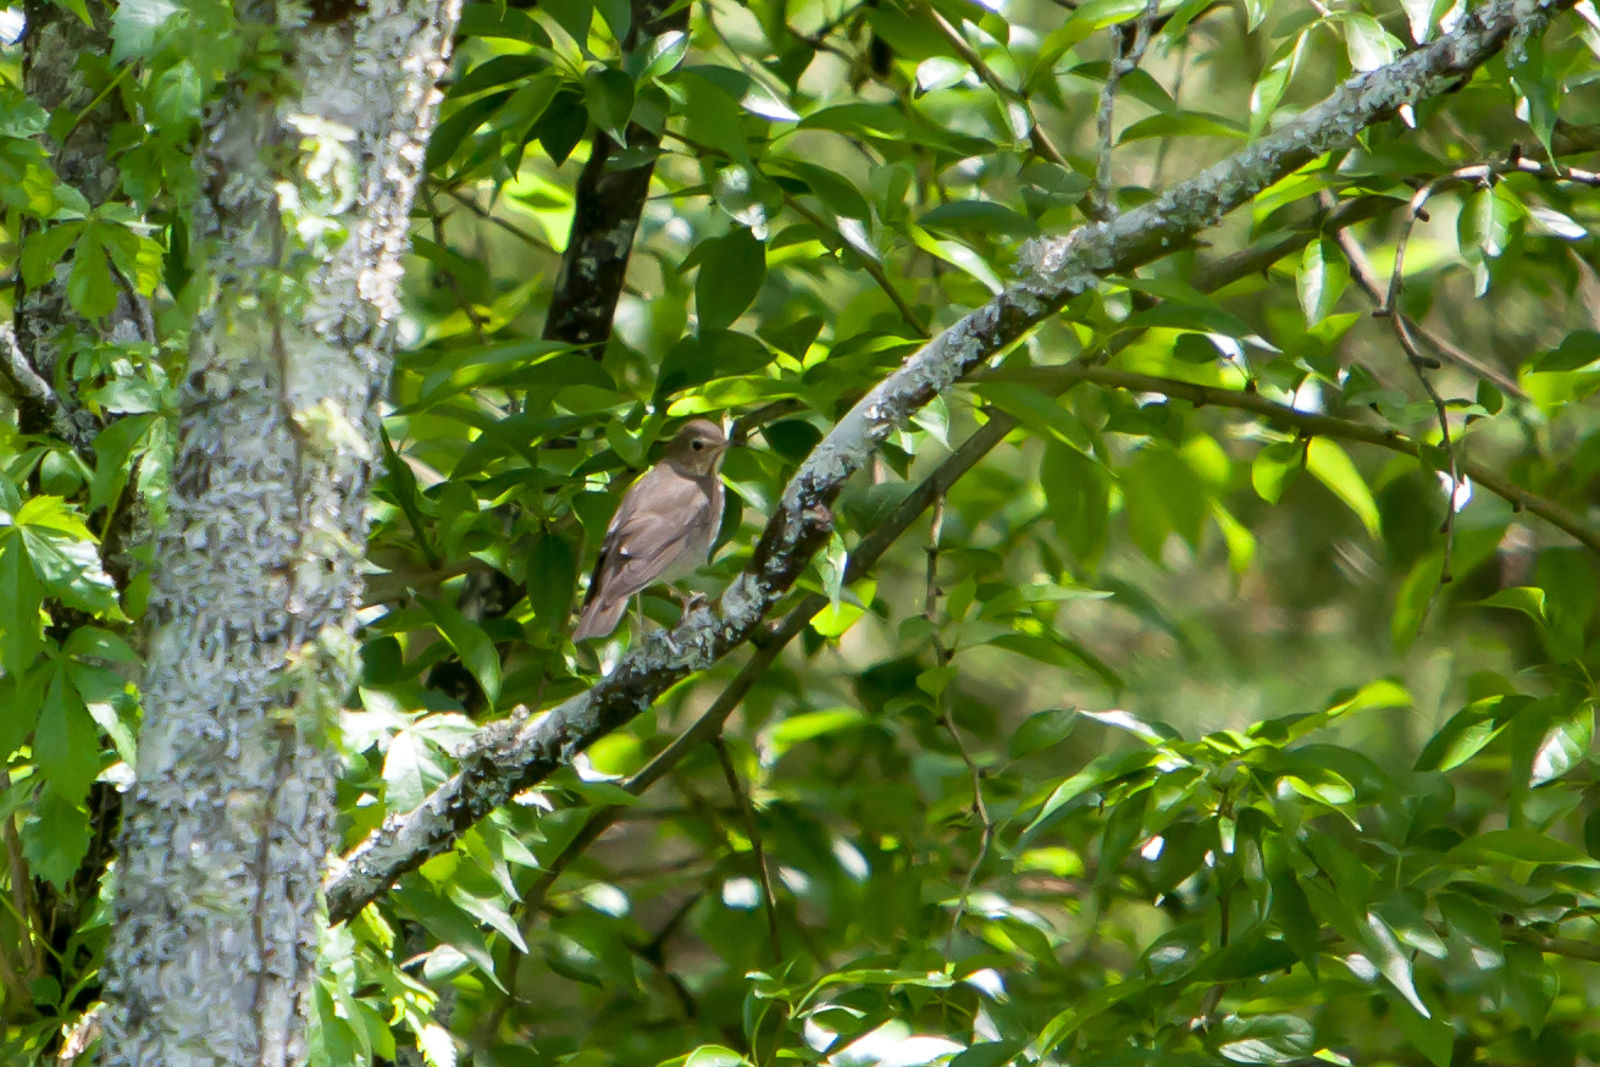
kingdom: Animalia
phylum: Chordata
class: Aves
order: Passeriformes
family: Turdidae
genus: Catharus
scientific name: Catharus ustulatus
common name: Swainson's thrush
